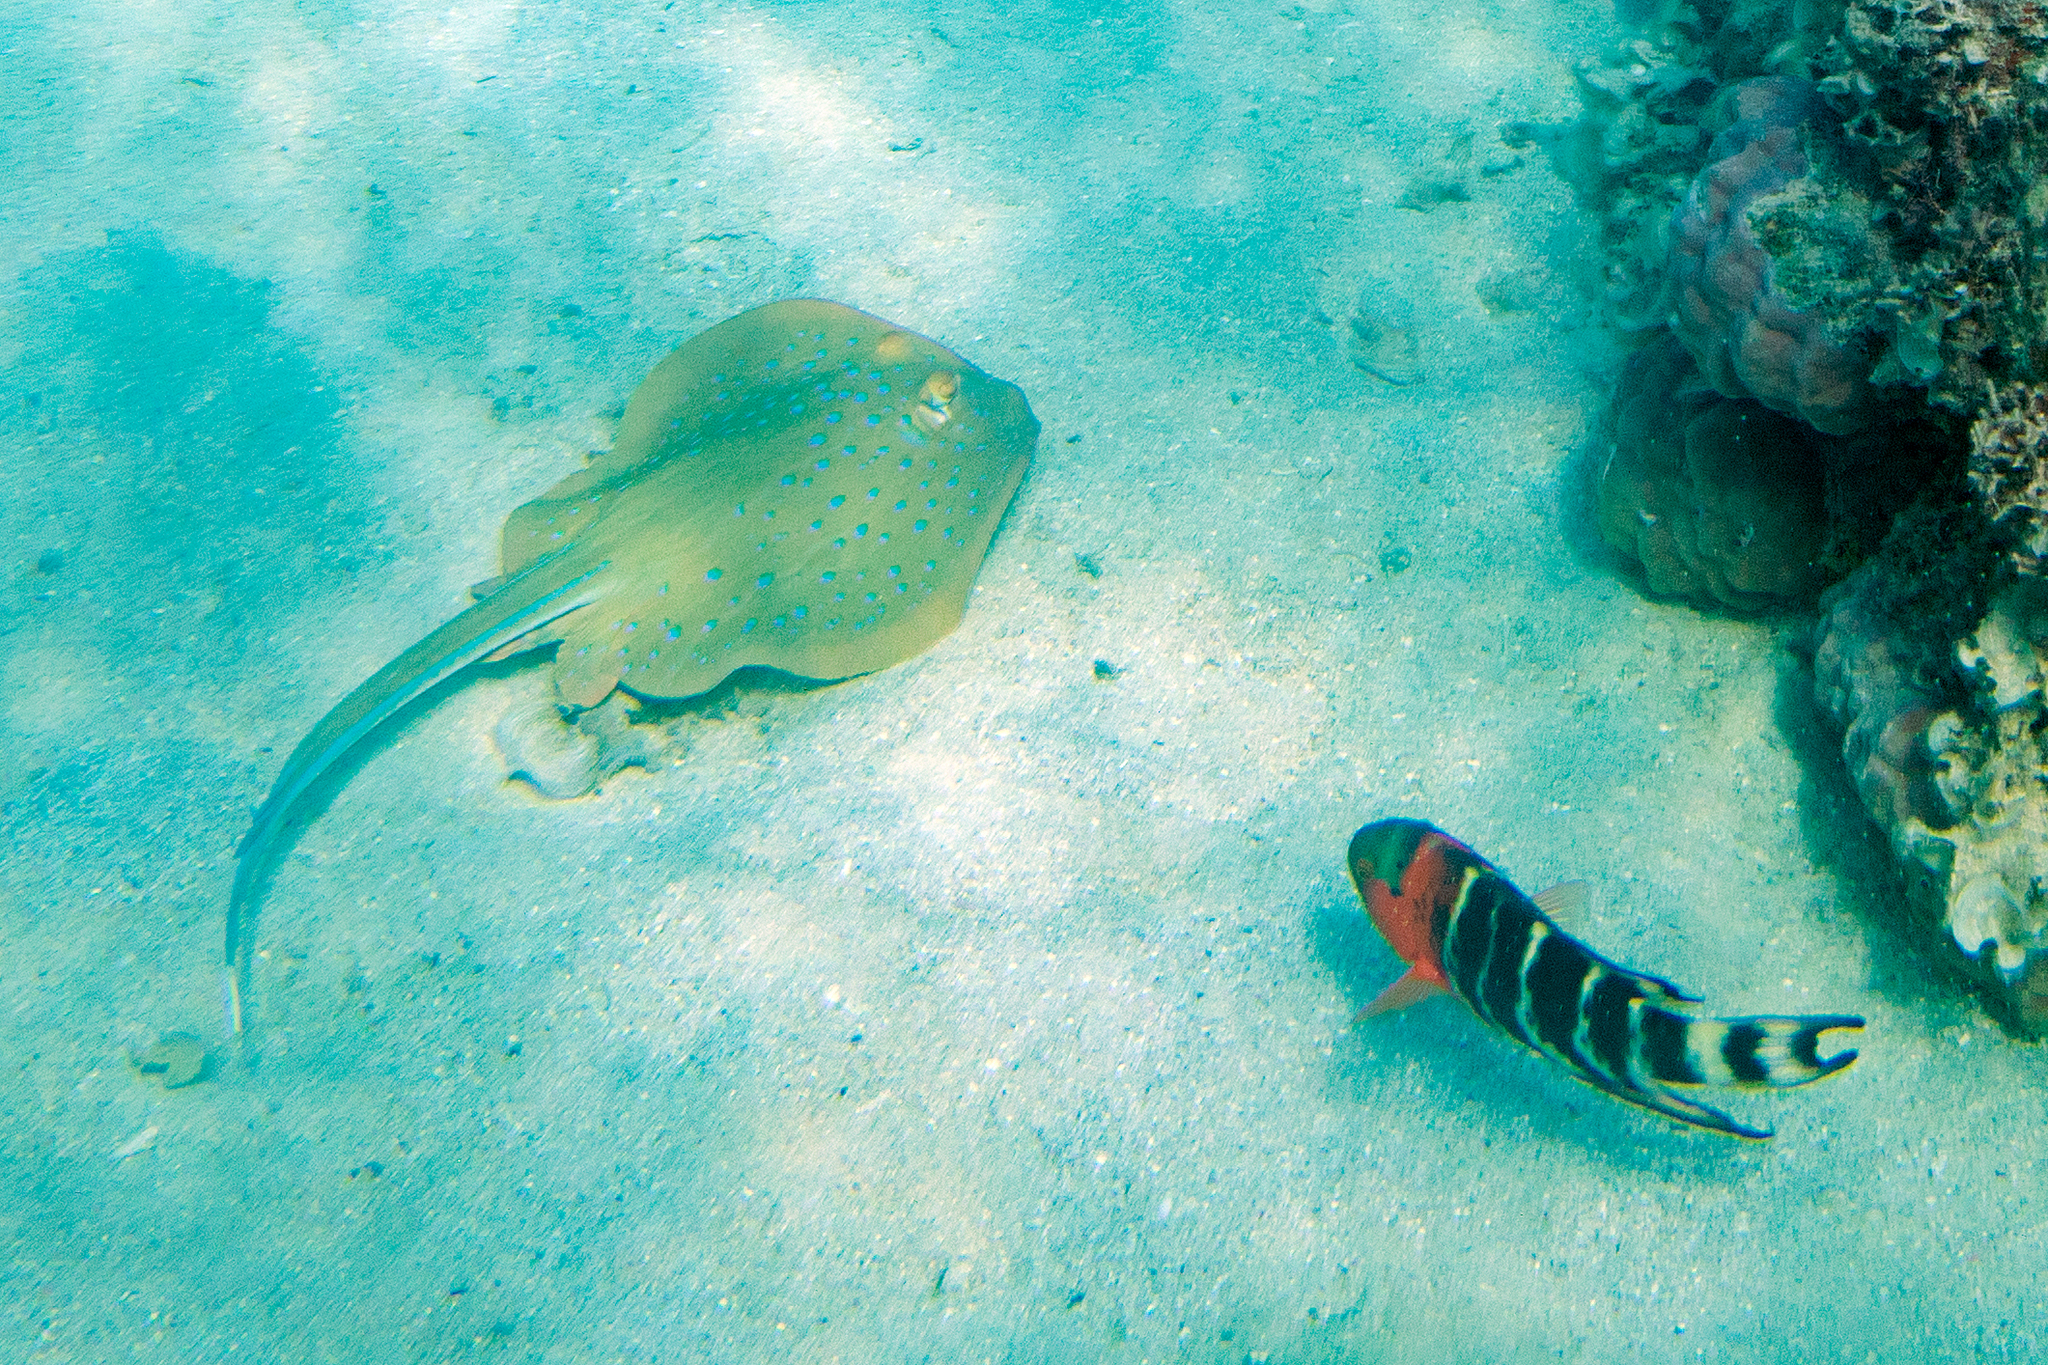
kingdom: Animalia
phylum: Chordata
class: Elasmobranchii
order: Myliobatiformes
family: Dasyatidae
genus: Taeniura
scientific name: Taeniura lymma
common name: Bluespotted ribbontail ray
